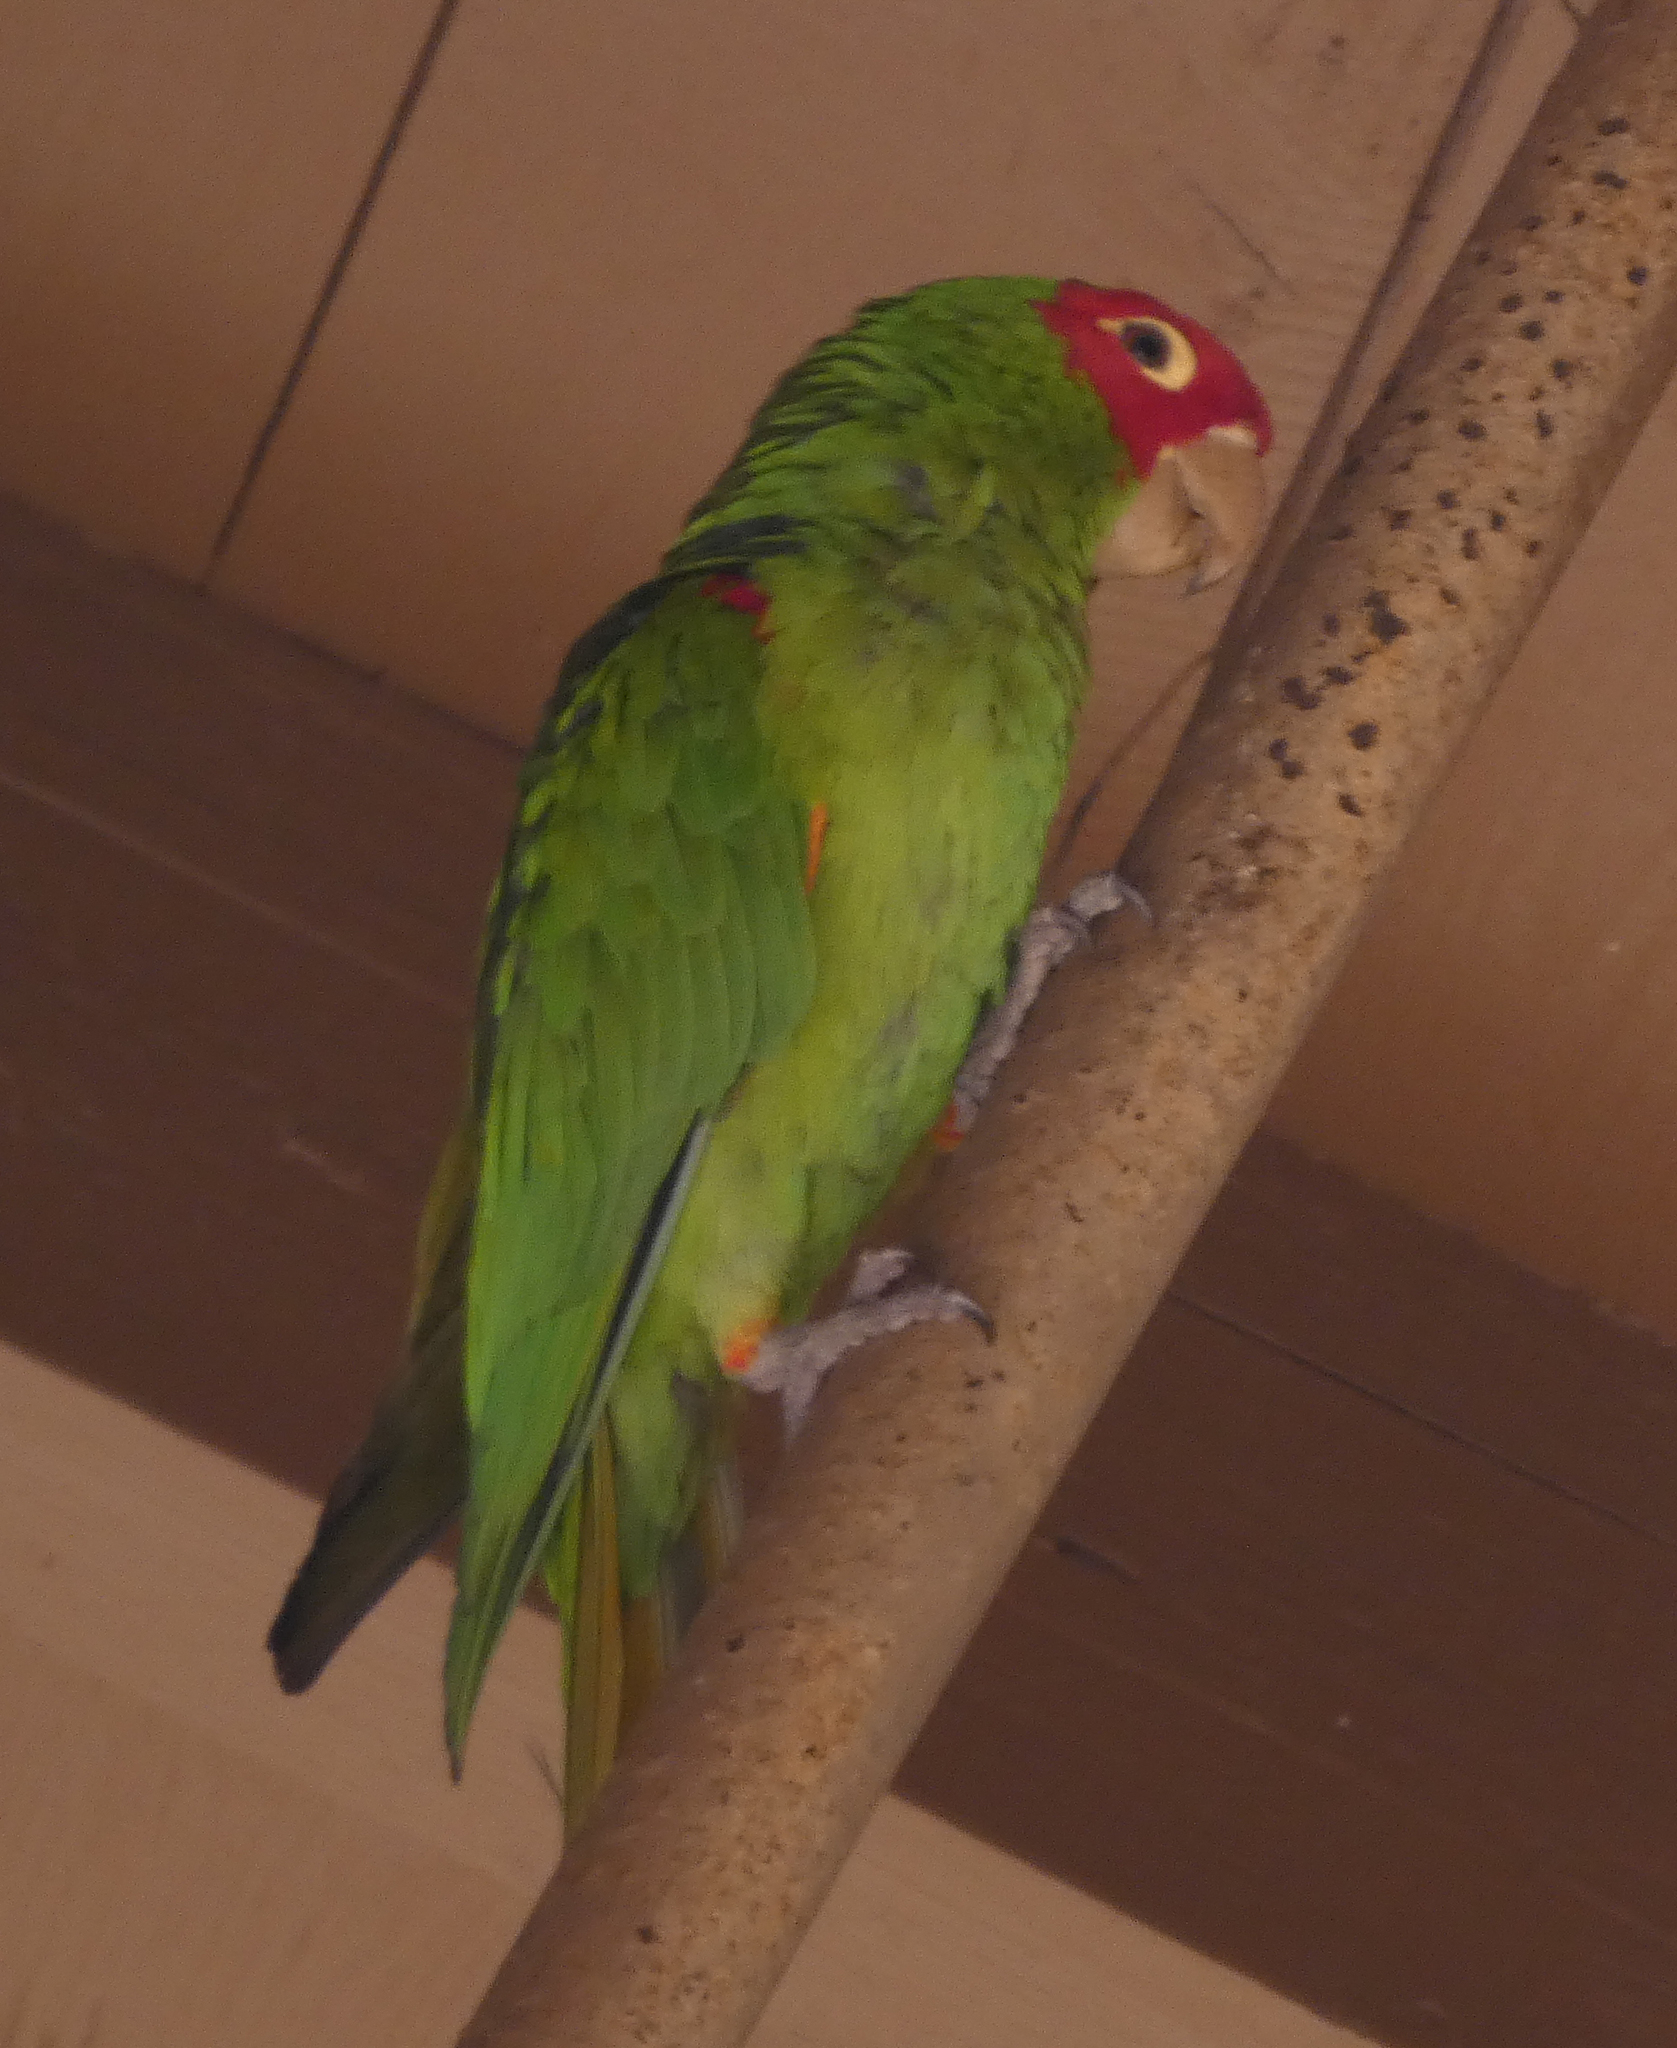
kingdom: Animalia
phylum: Chordata
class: Aves
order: Psittaciformes
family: Psittacidae
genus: Aratinga
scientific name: Aratinga erythrogenys
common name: Red-masked parakeet
